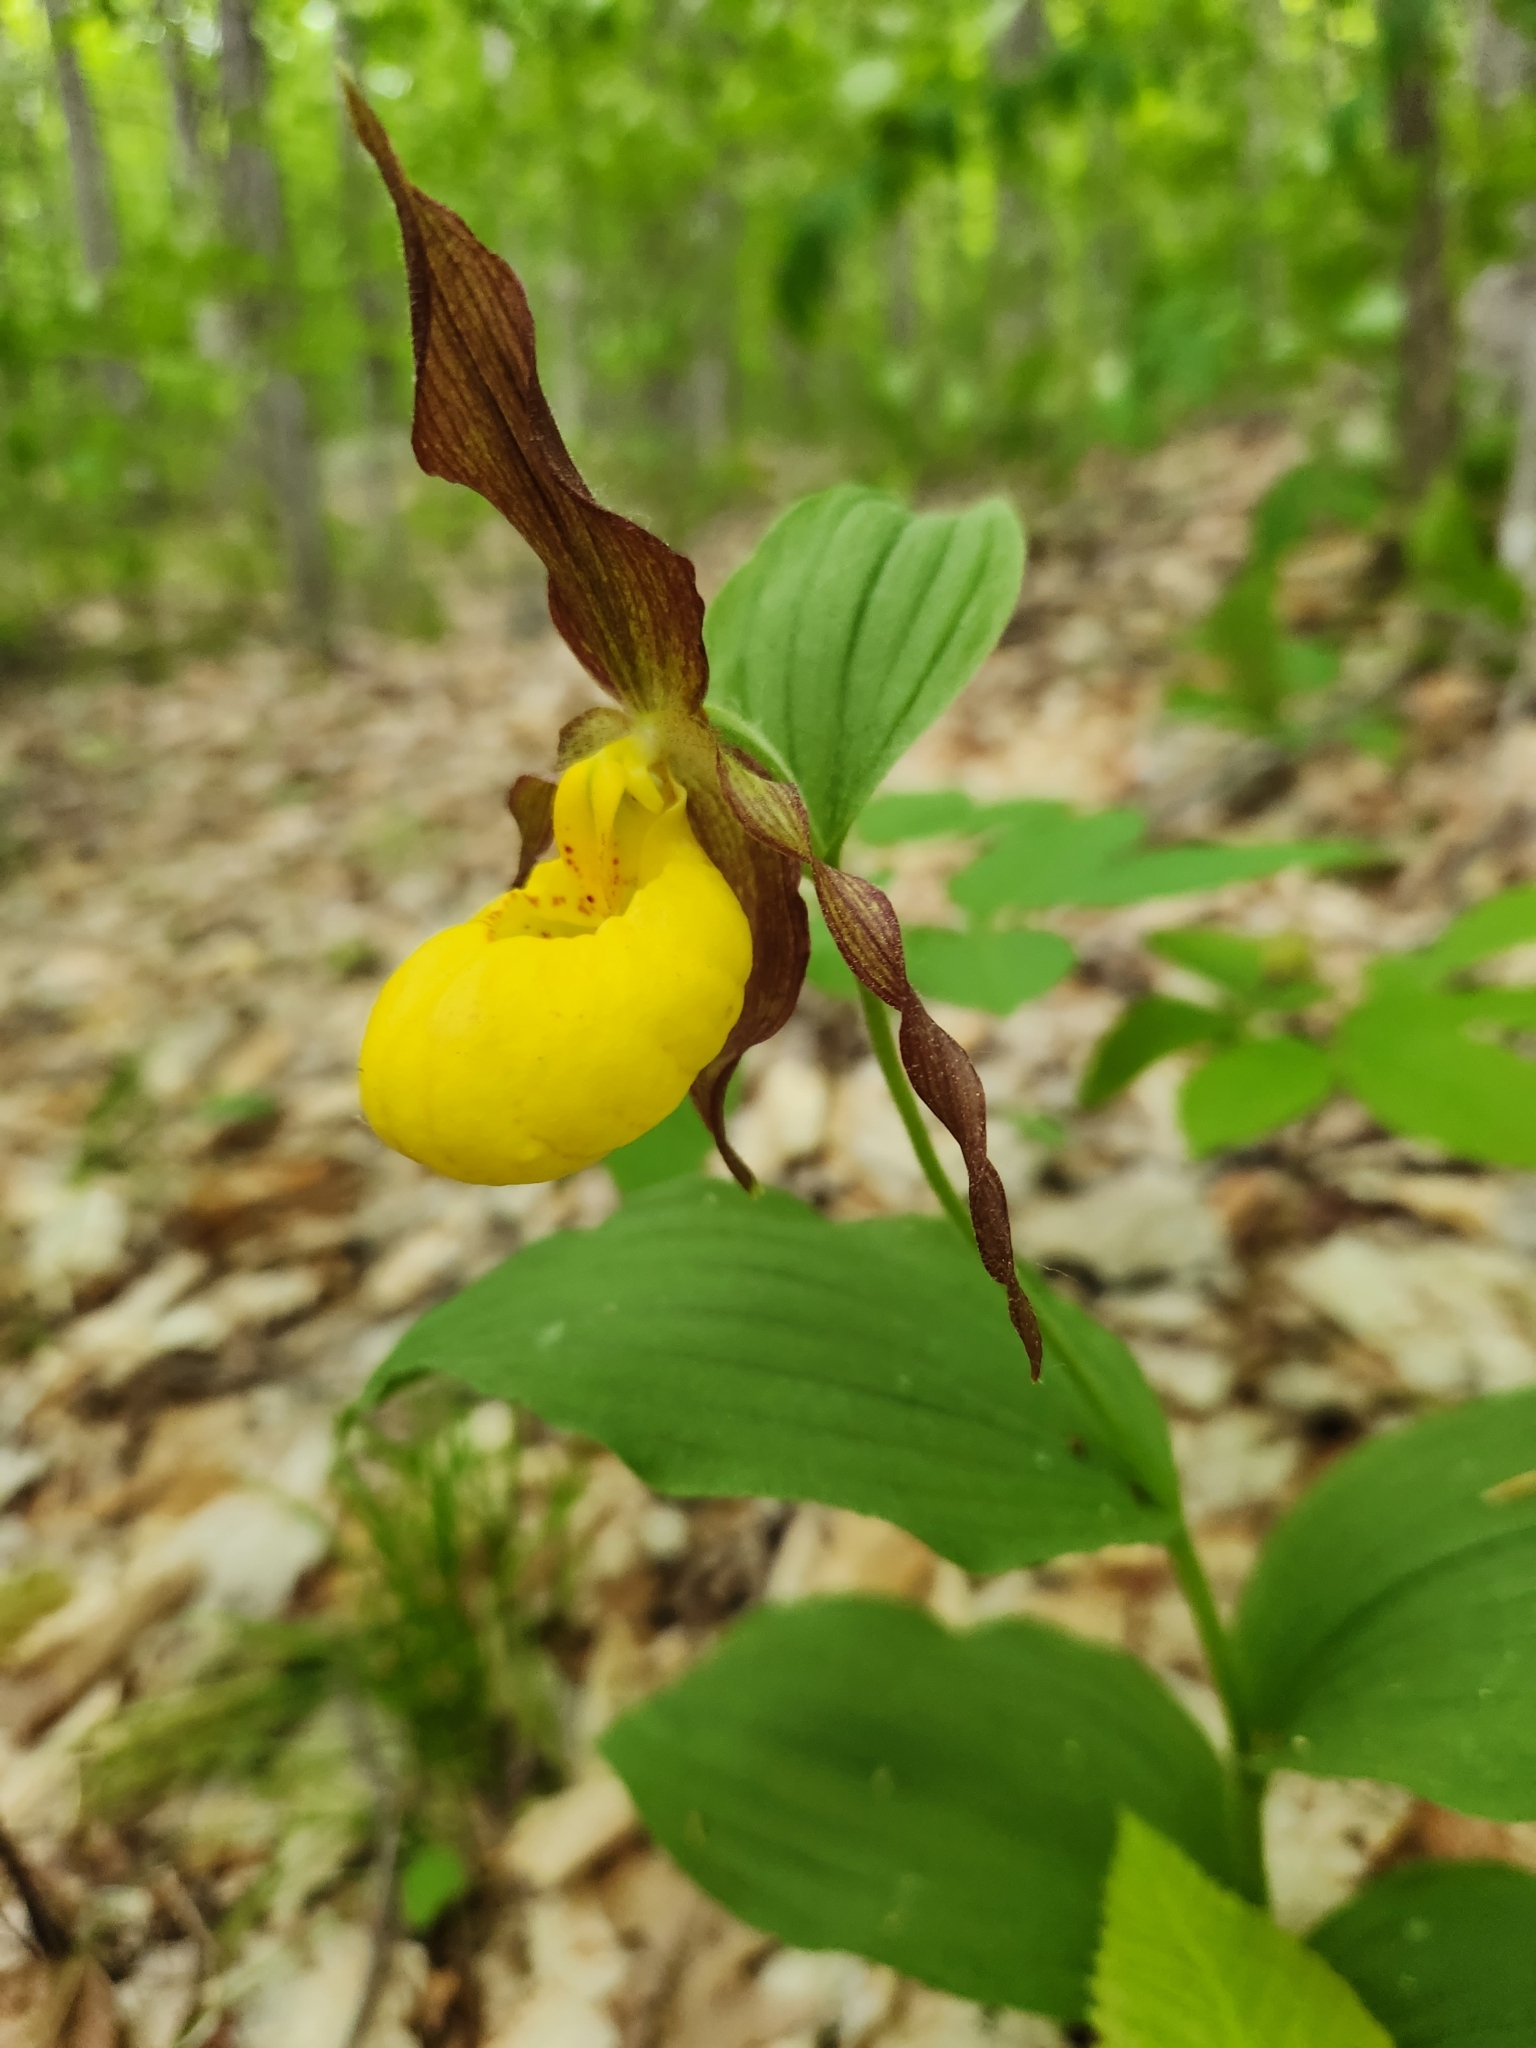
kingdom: Plantae
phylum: Tracheophyta
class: Liliopsida
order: Asparagales
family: Orchidaceae
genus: Cypripedium
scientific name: Cypripedium parviflorum
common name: American yellow lady's-slipper
